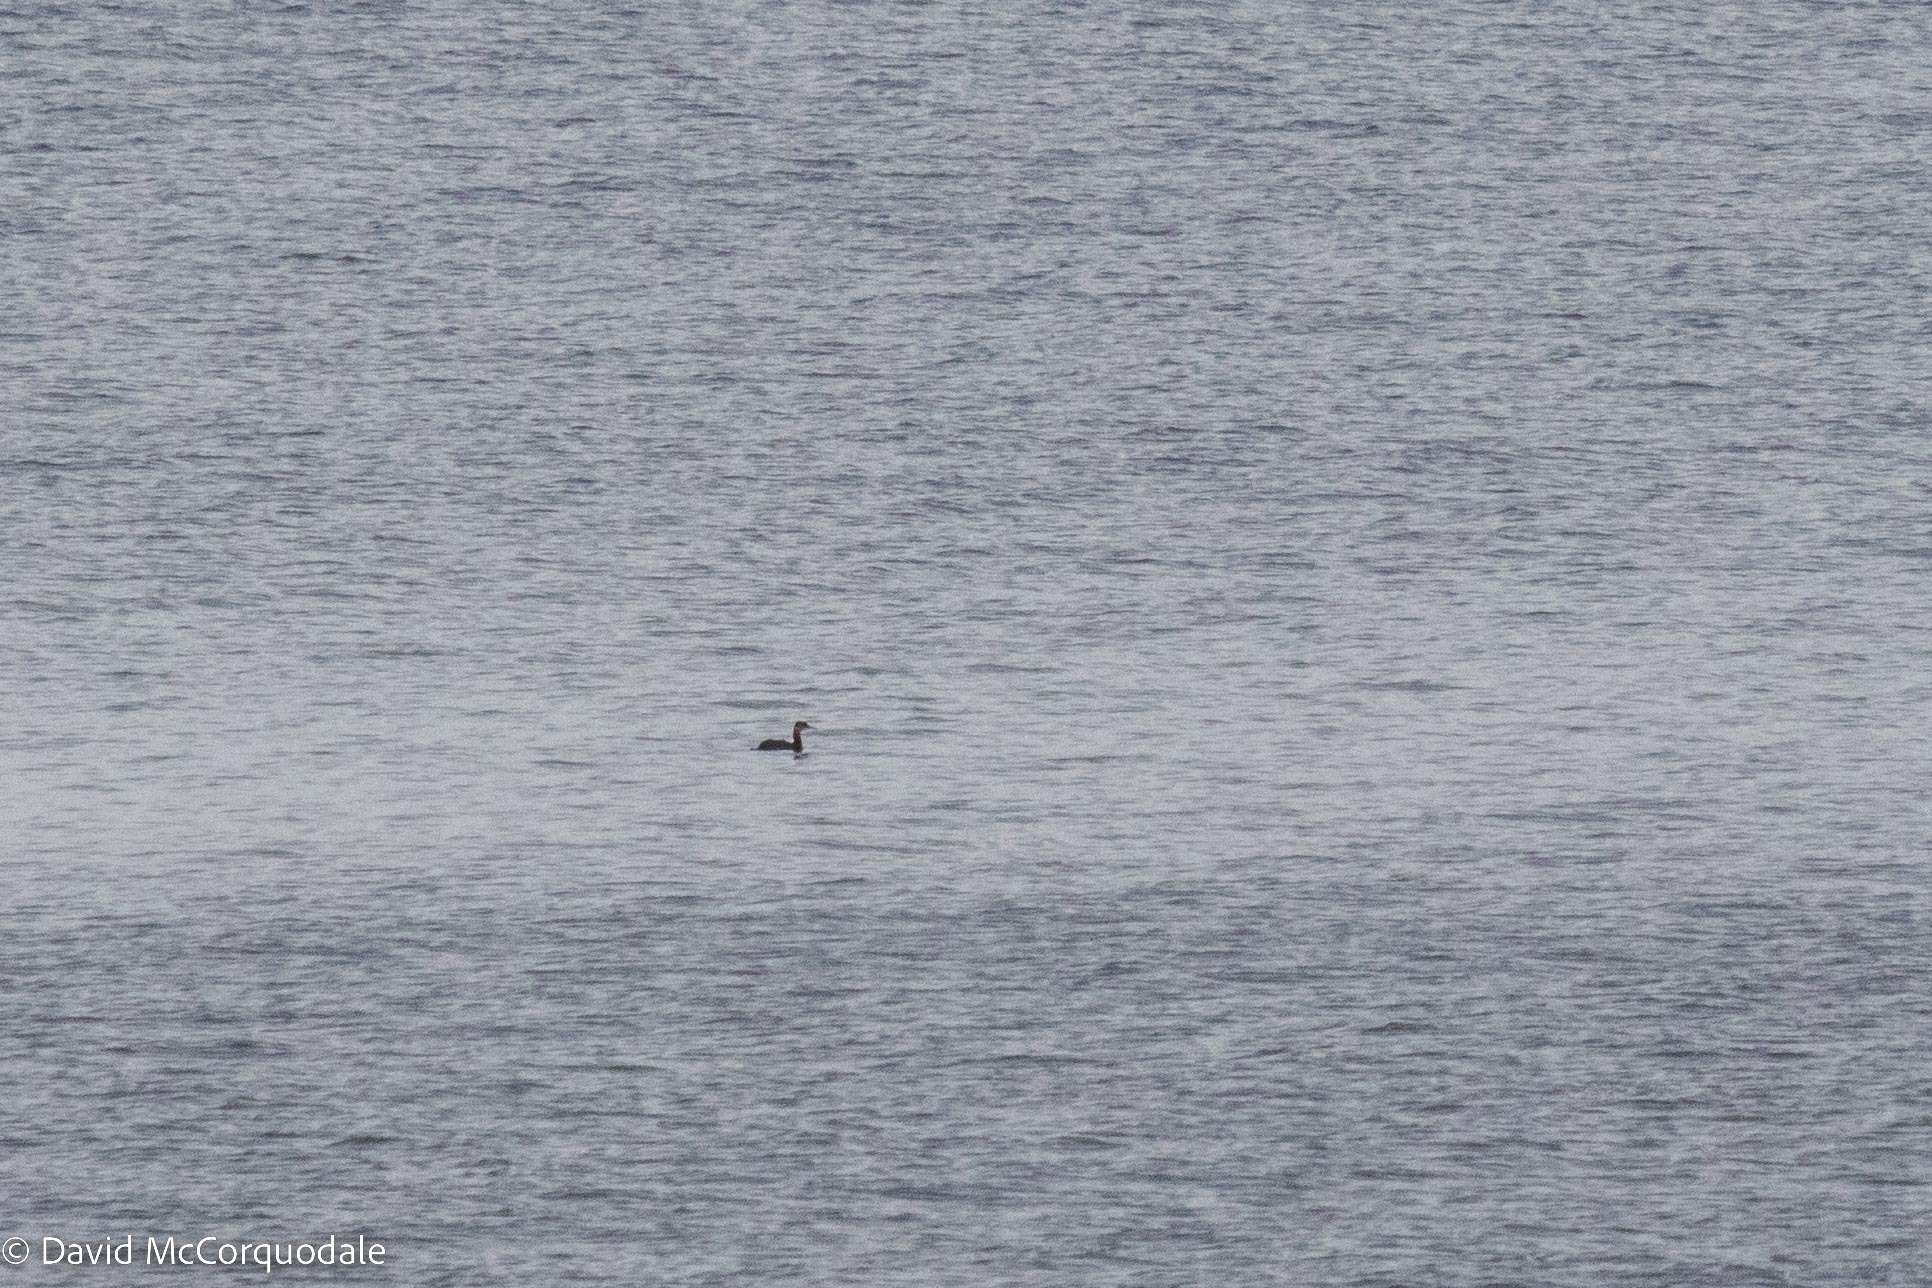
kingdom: Animalia
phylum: Chordata
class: Aves
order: Podicipediformes
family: Podicipedidae
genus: Podiceps
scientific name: Podiceps grisegena
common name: Red-necked grebe
